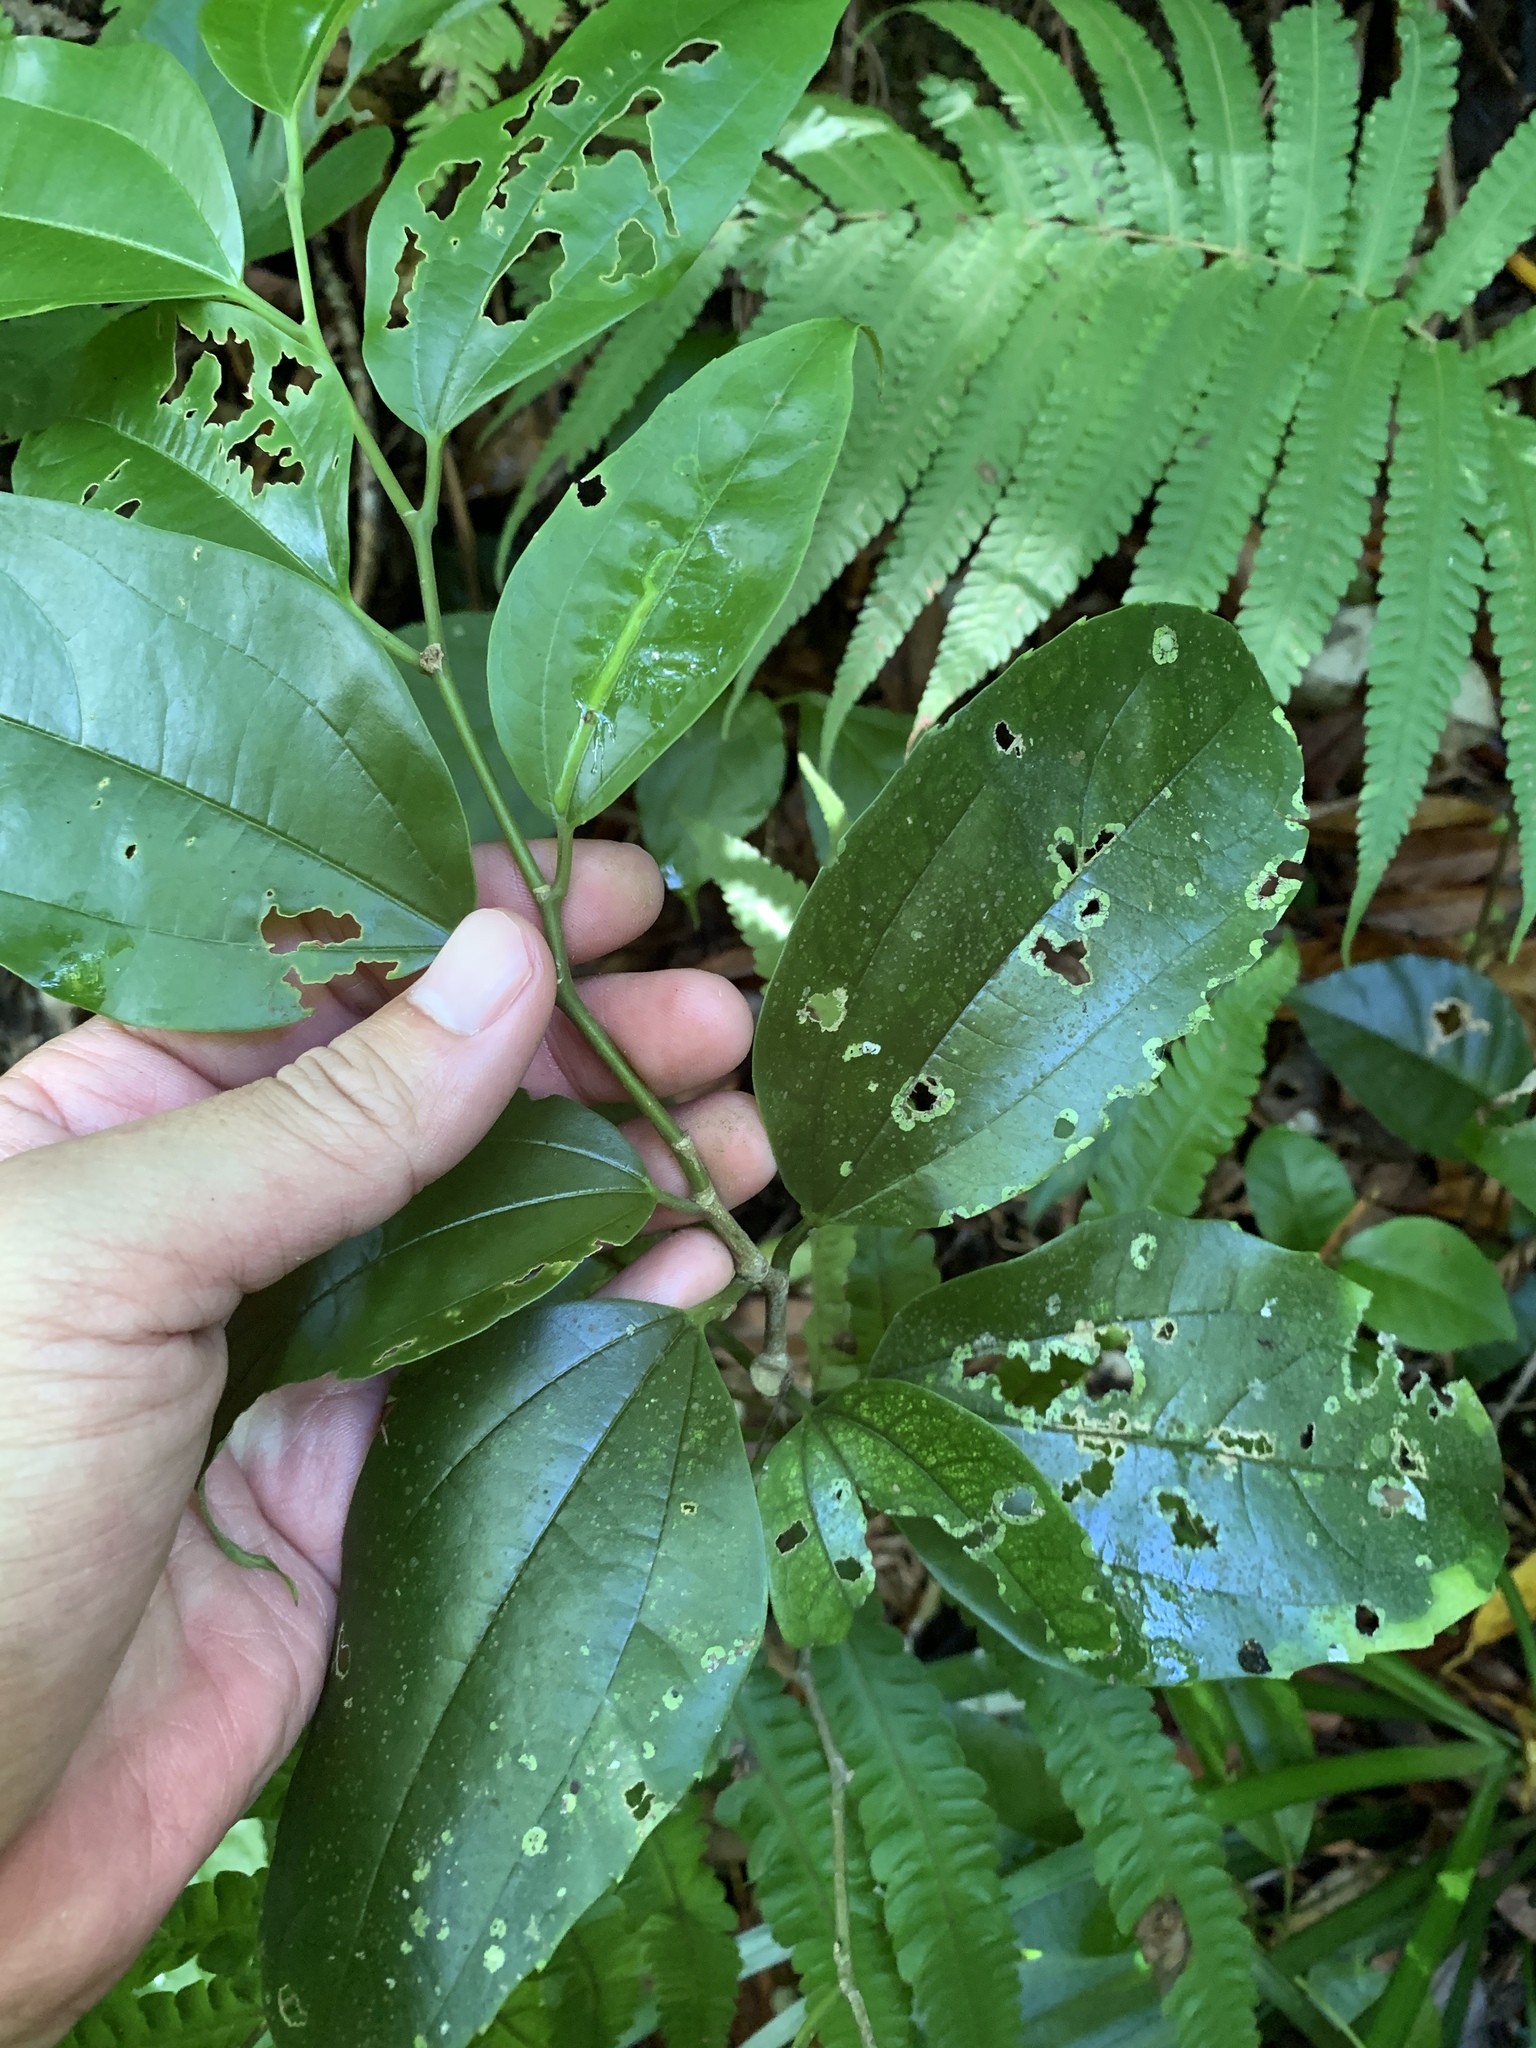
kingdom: Plantae
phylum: Tracheophyta
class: Magnoliopsida
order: Rosales
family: Cannabaceae
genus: Celtis
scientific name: Celtis philippensis
